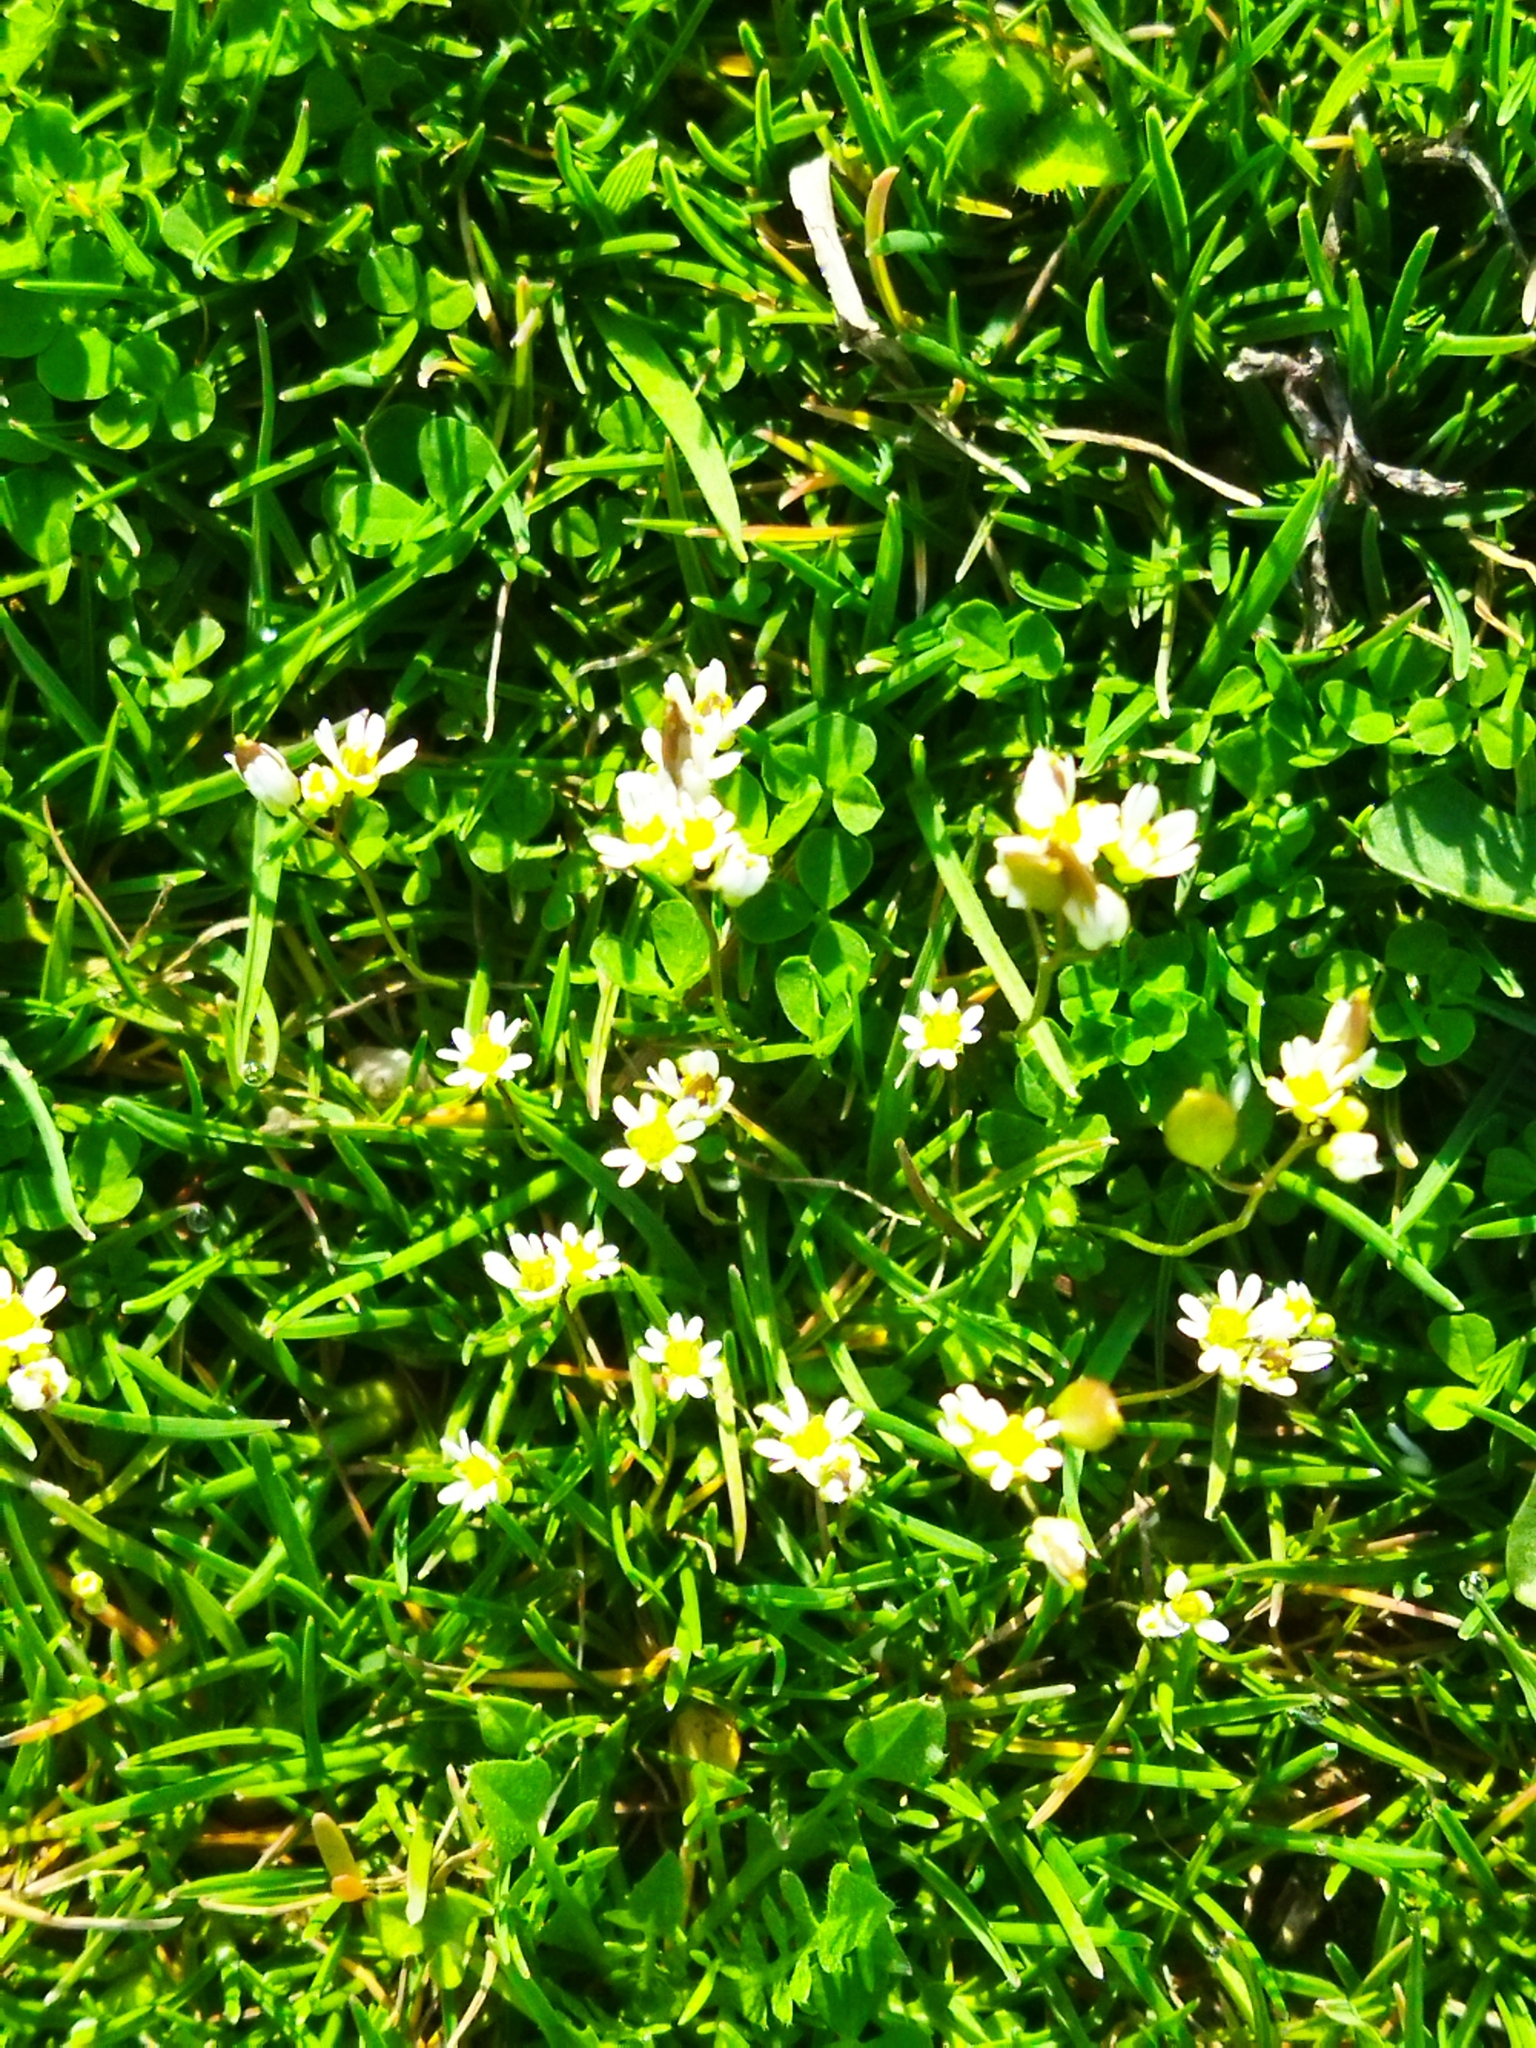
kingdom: Plantae
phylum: Tracheophyta
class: Magnoliopsida
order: Brassicales
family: Brassicaceae
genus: Draba
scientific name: Draba verna
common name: Spring draba
